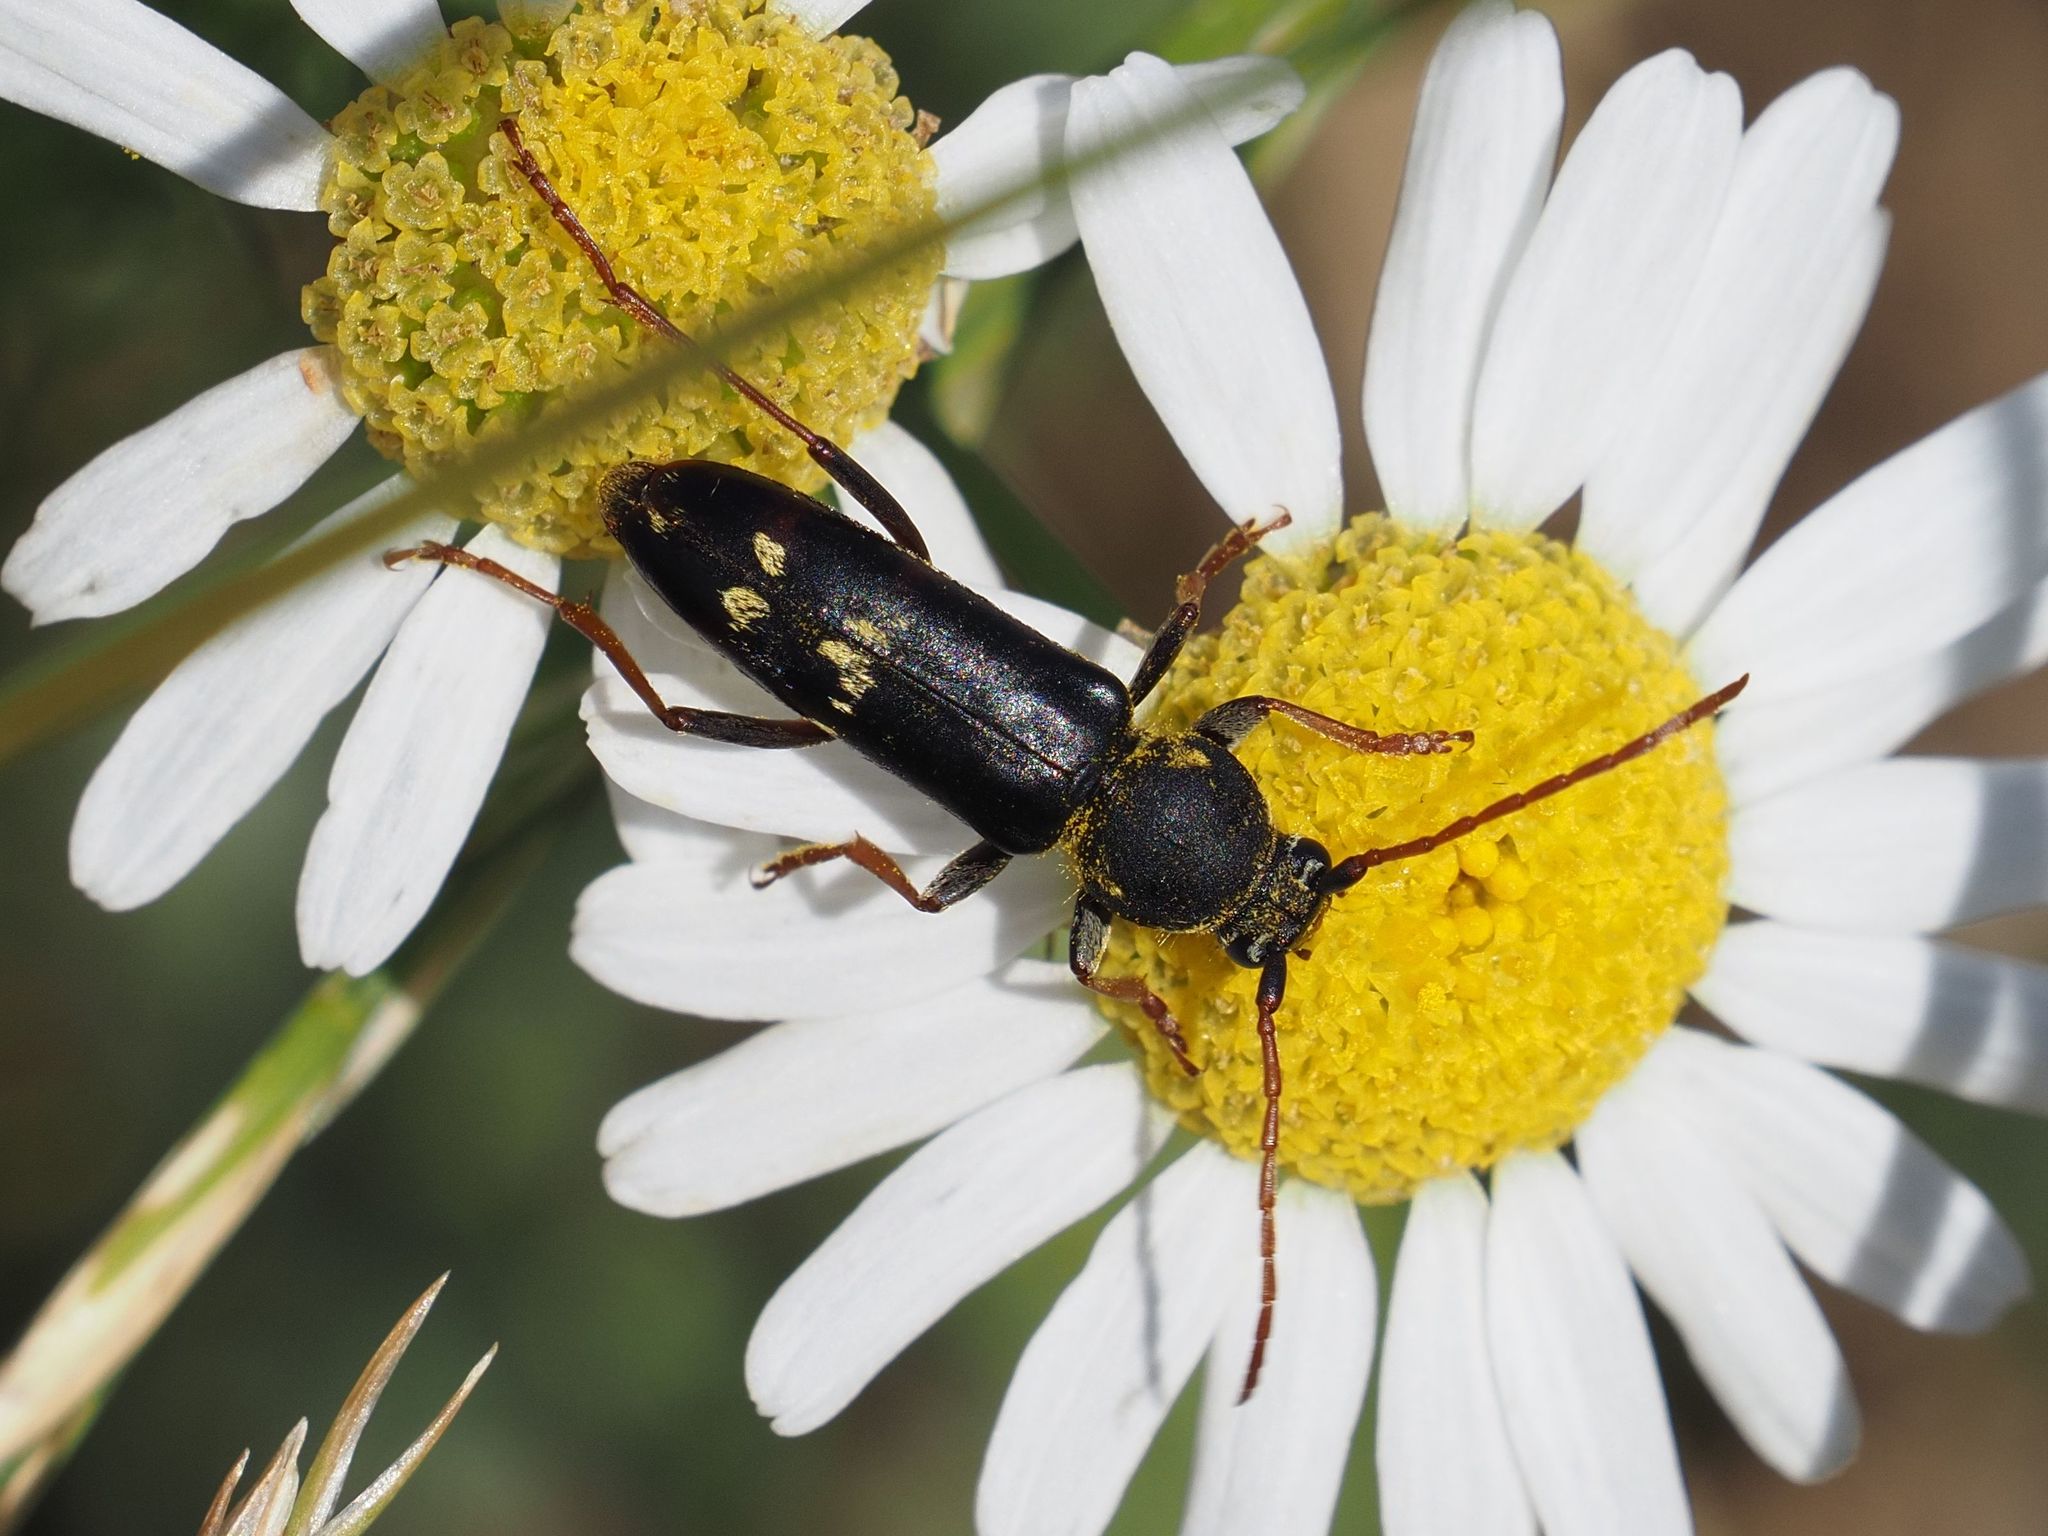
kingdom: Animalia
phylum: Arthropoda
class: Insecta
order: Coleoptera
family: Cerambycidae
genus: Plagionotus
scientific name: Plagionotus floralis
